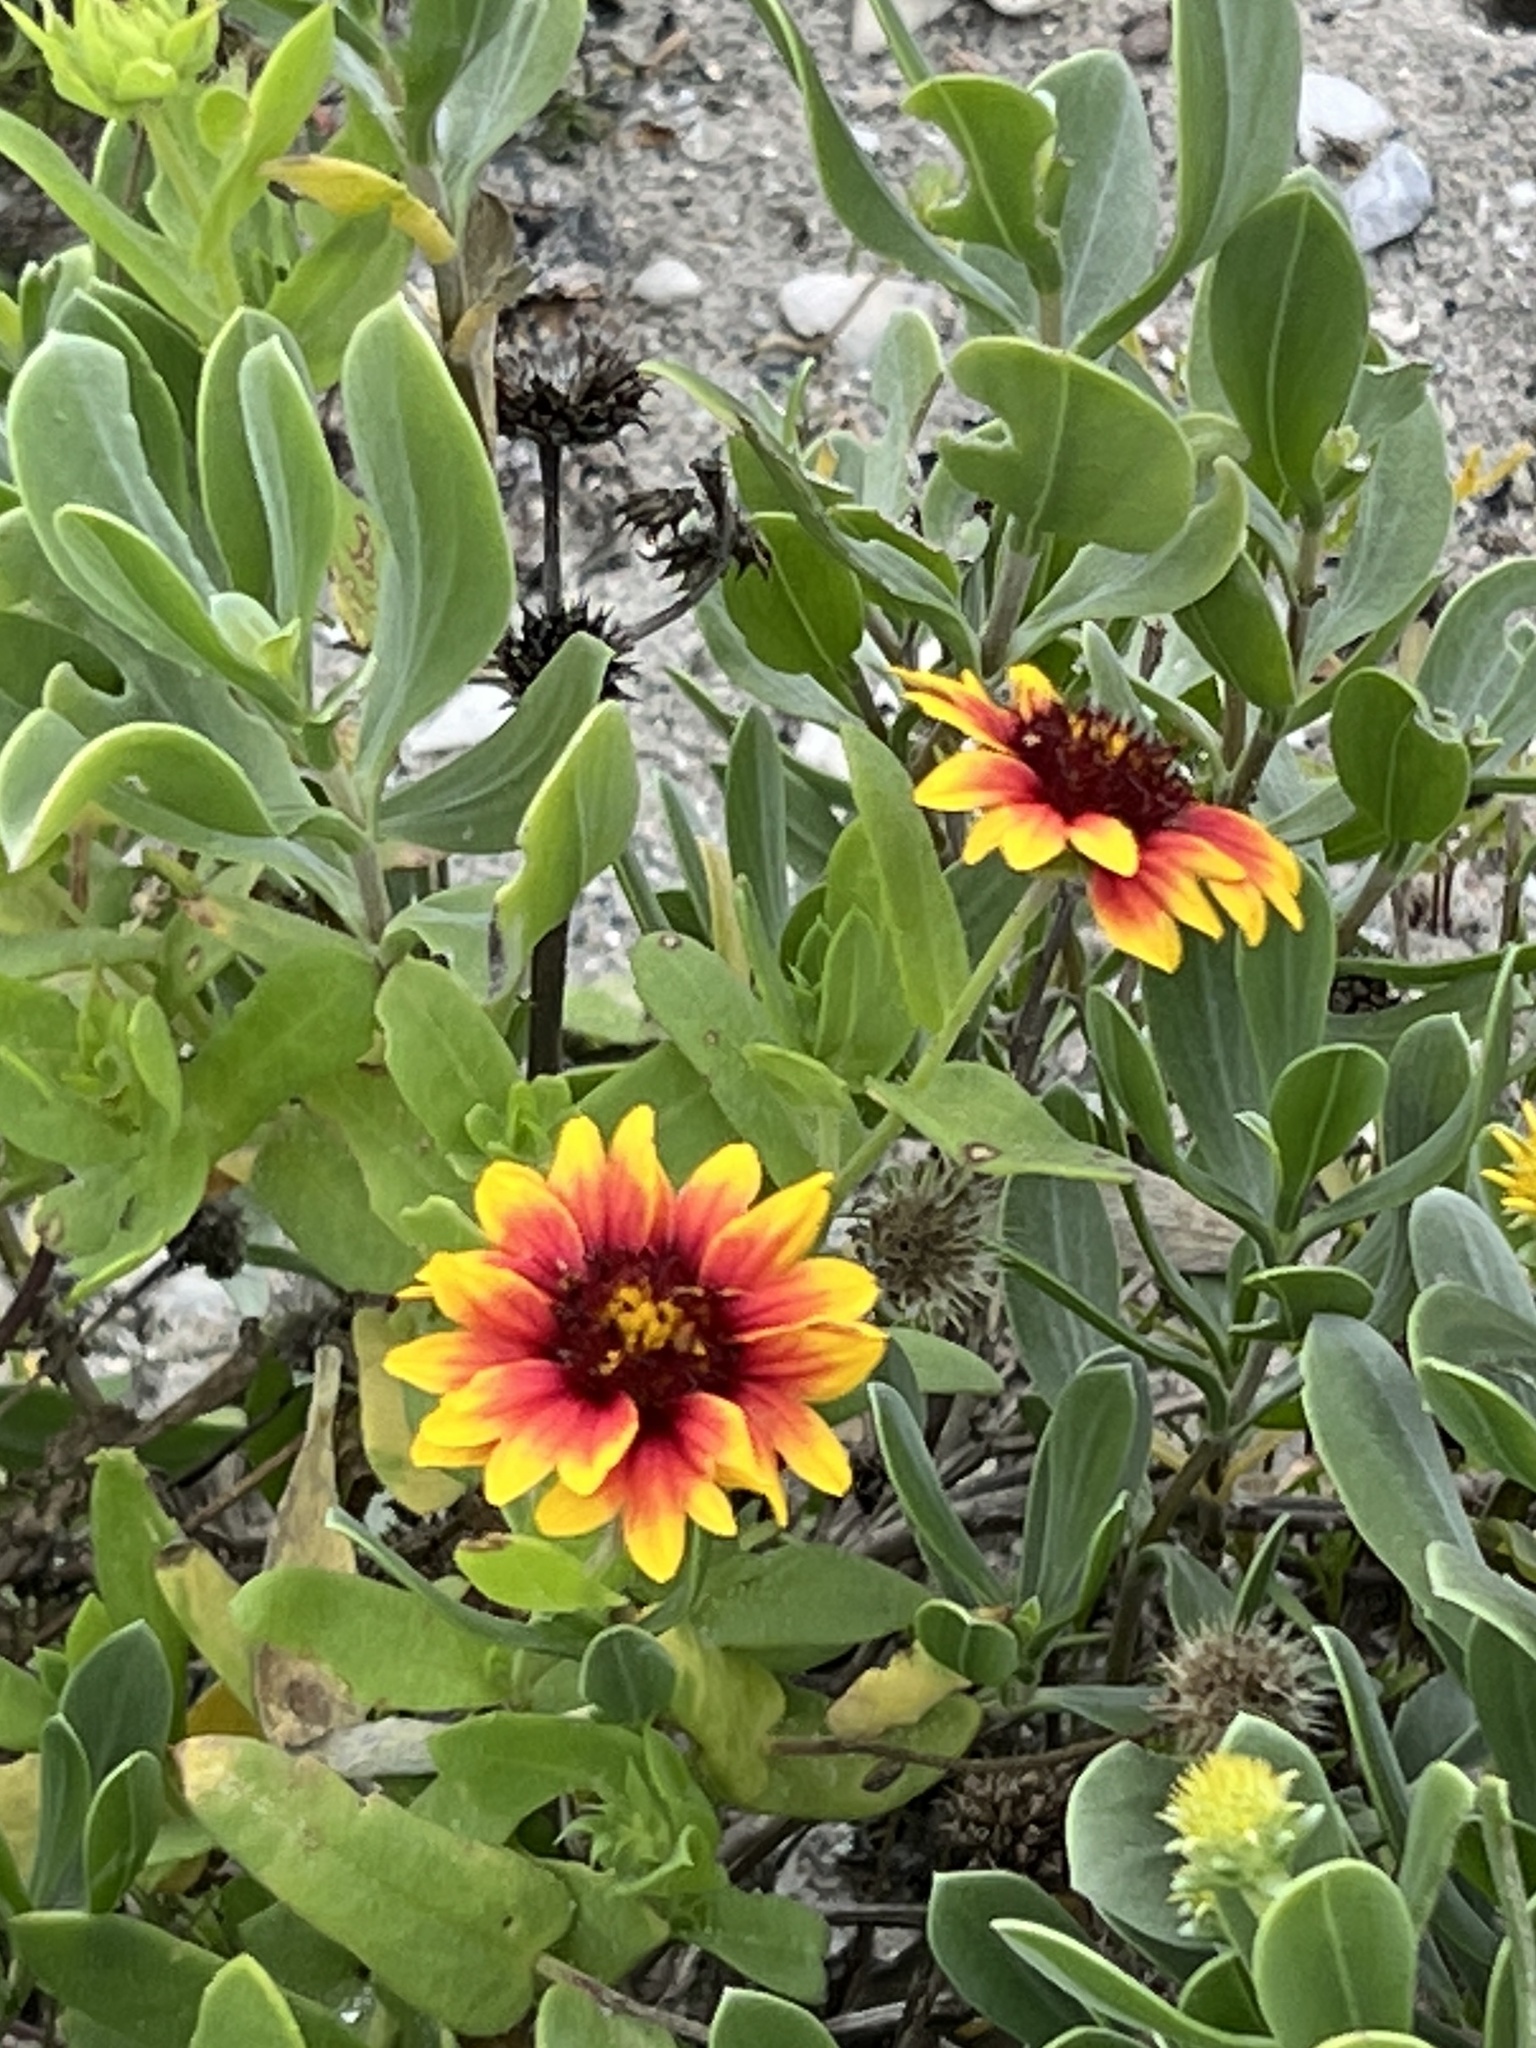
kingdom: Plantae
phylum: Tracheophyta
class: Magnoliopsida
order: Asterales
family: Asteraceae
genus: Gaillardia
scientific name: Gaillardia pulchella
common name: Firewheel
